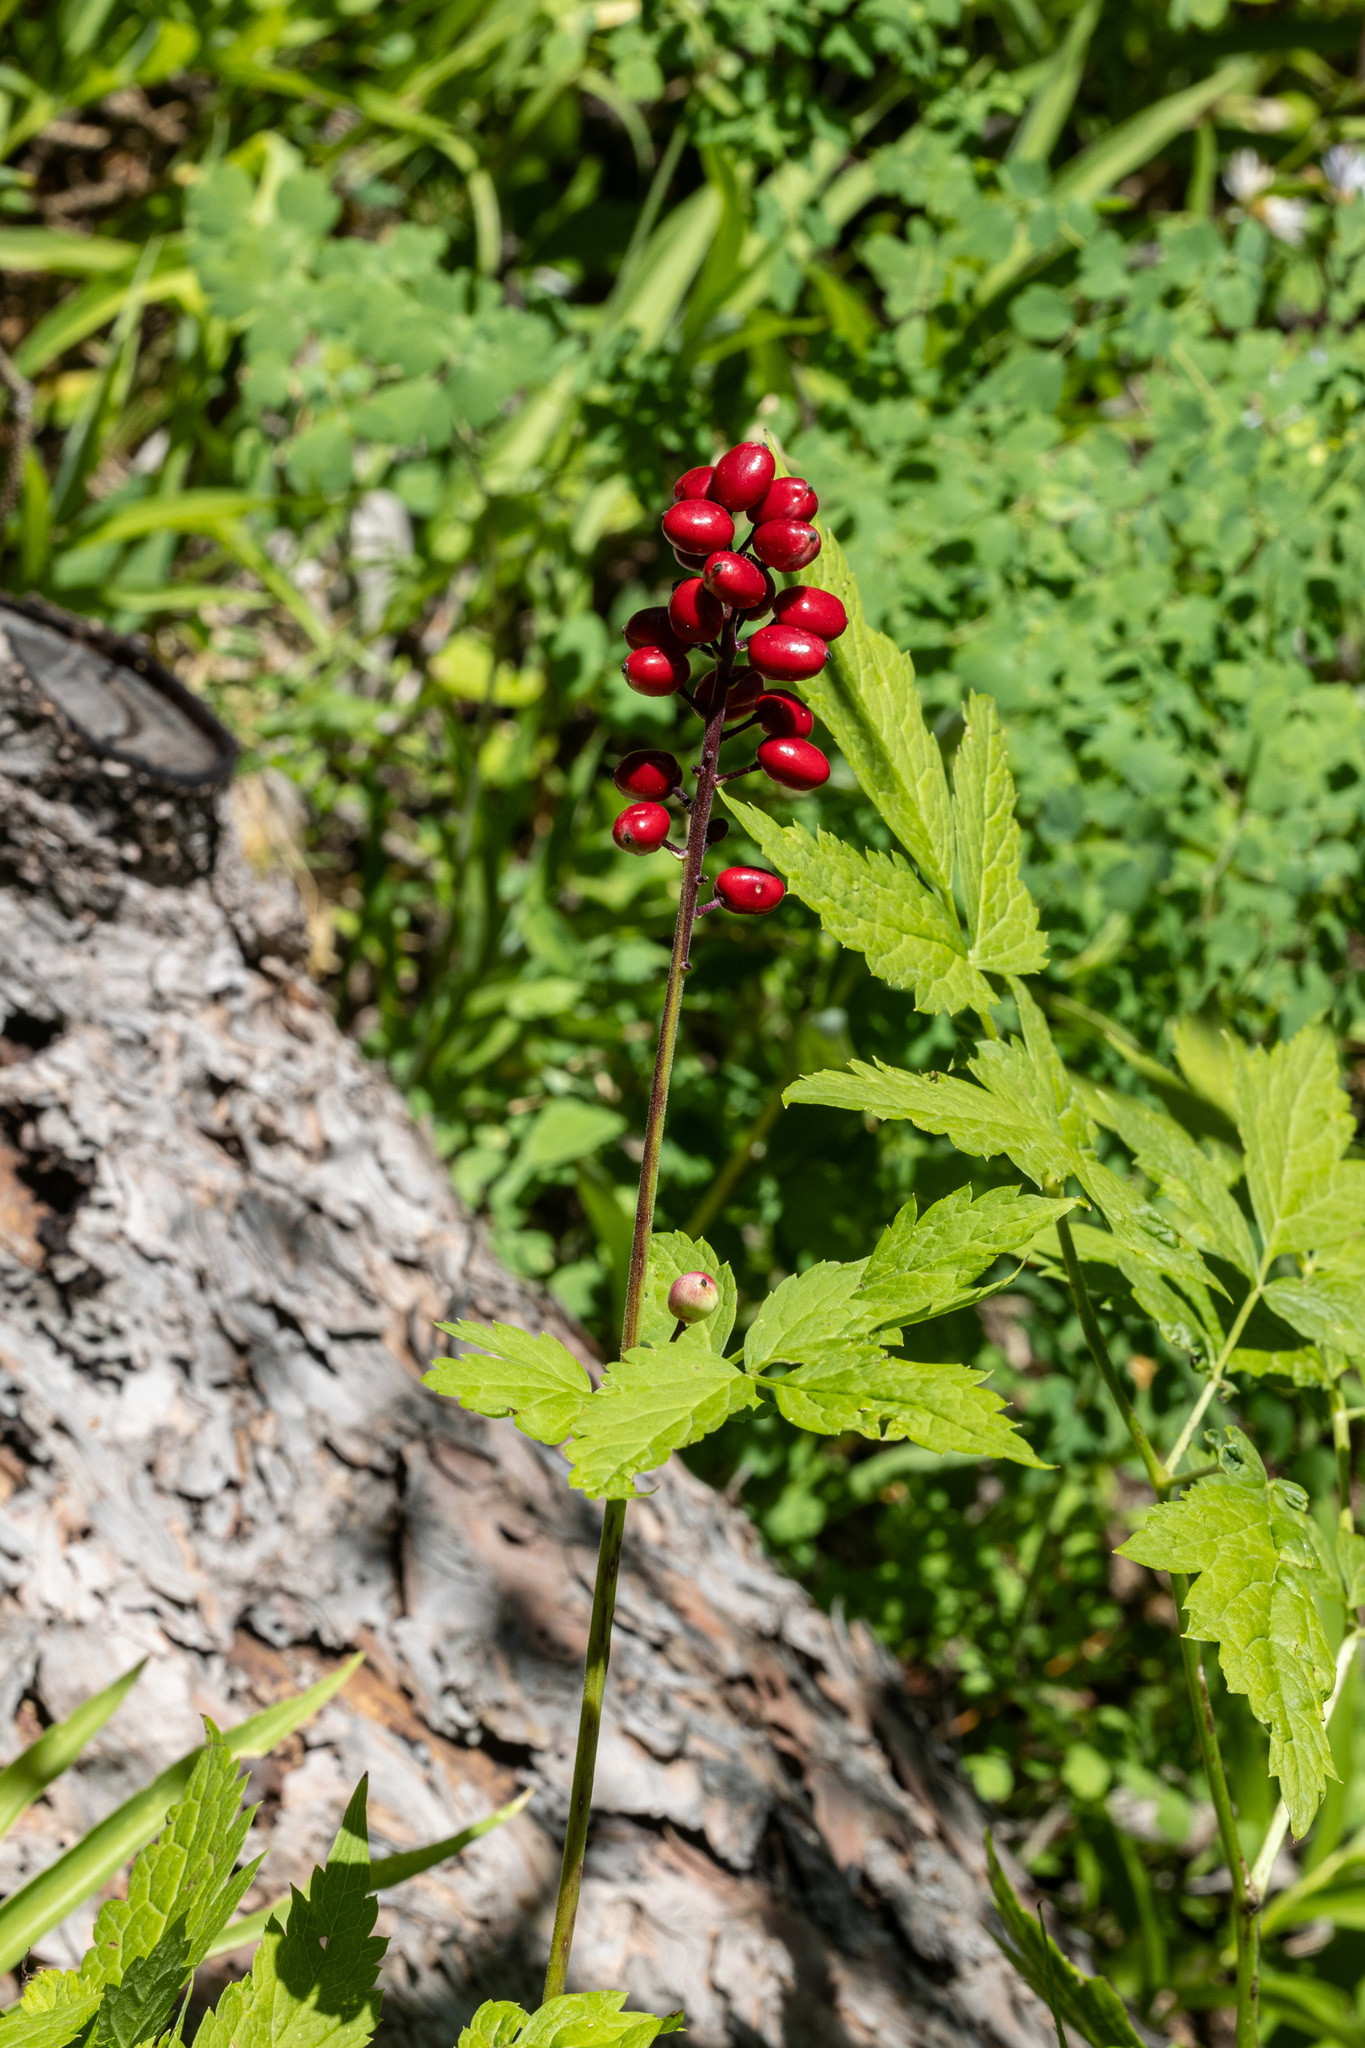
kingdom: Plantae
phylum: Tracheophyta
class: Magnoliopsida
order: Ranunculales
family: Ranunculaceae
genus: Actaea
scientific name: Actaea rubra
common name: Red baneberry
